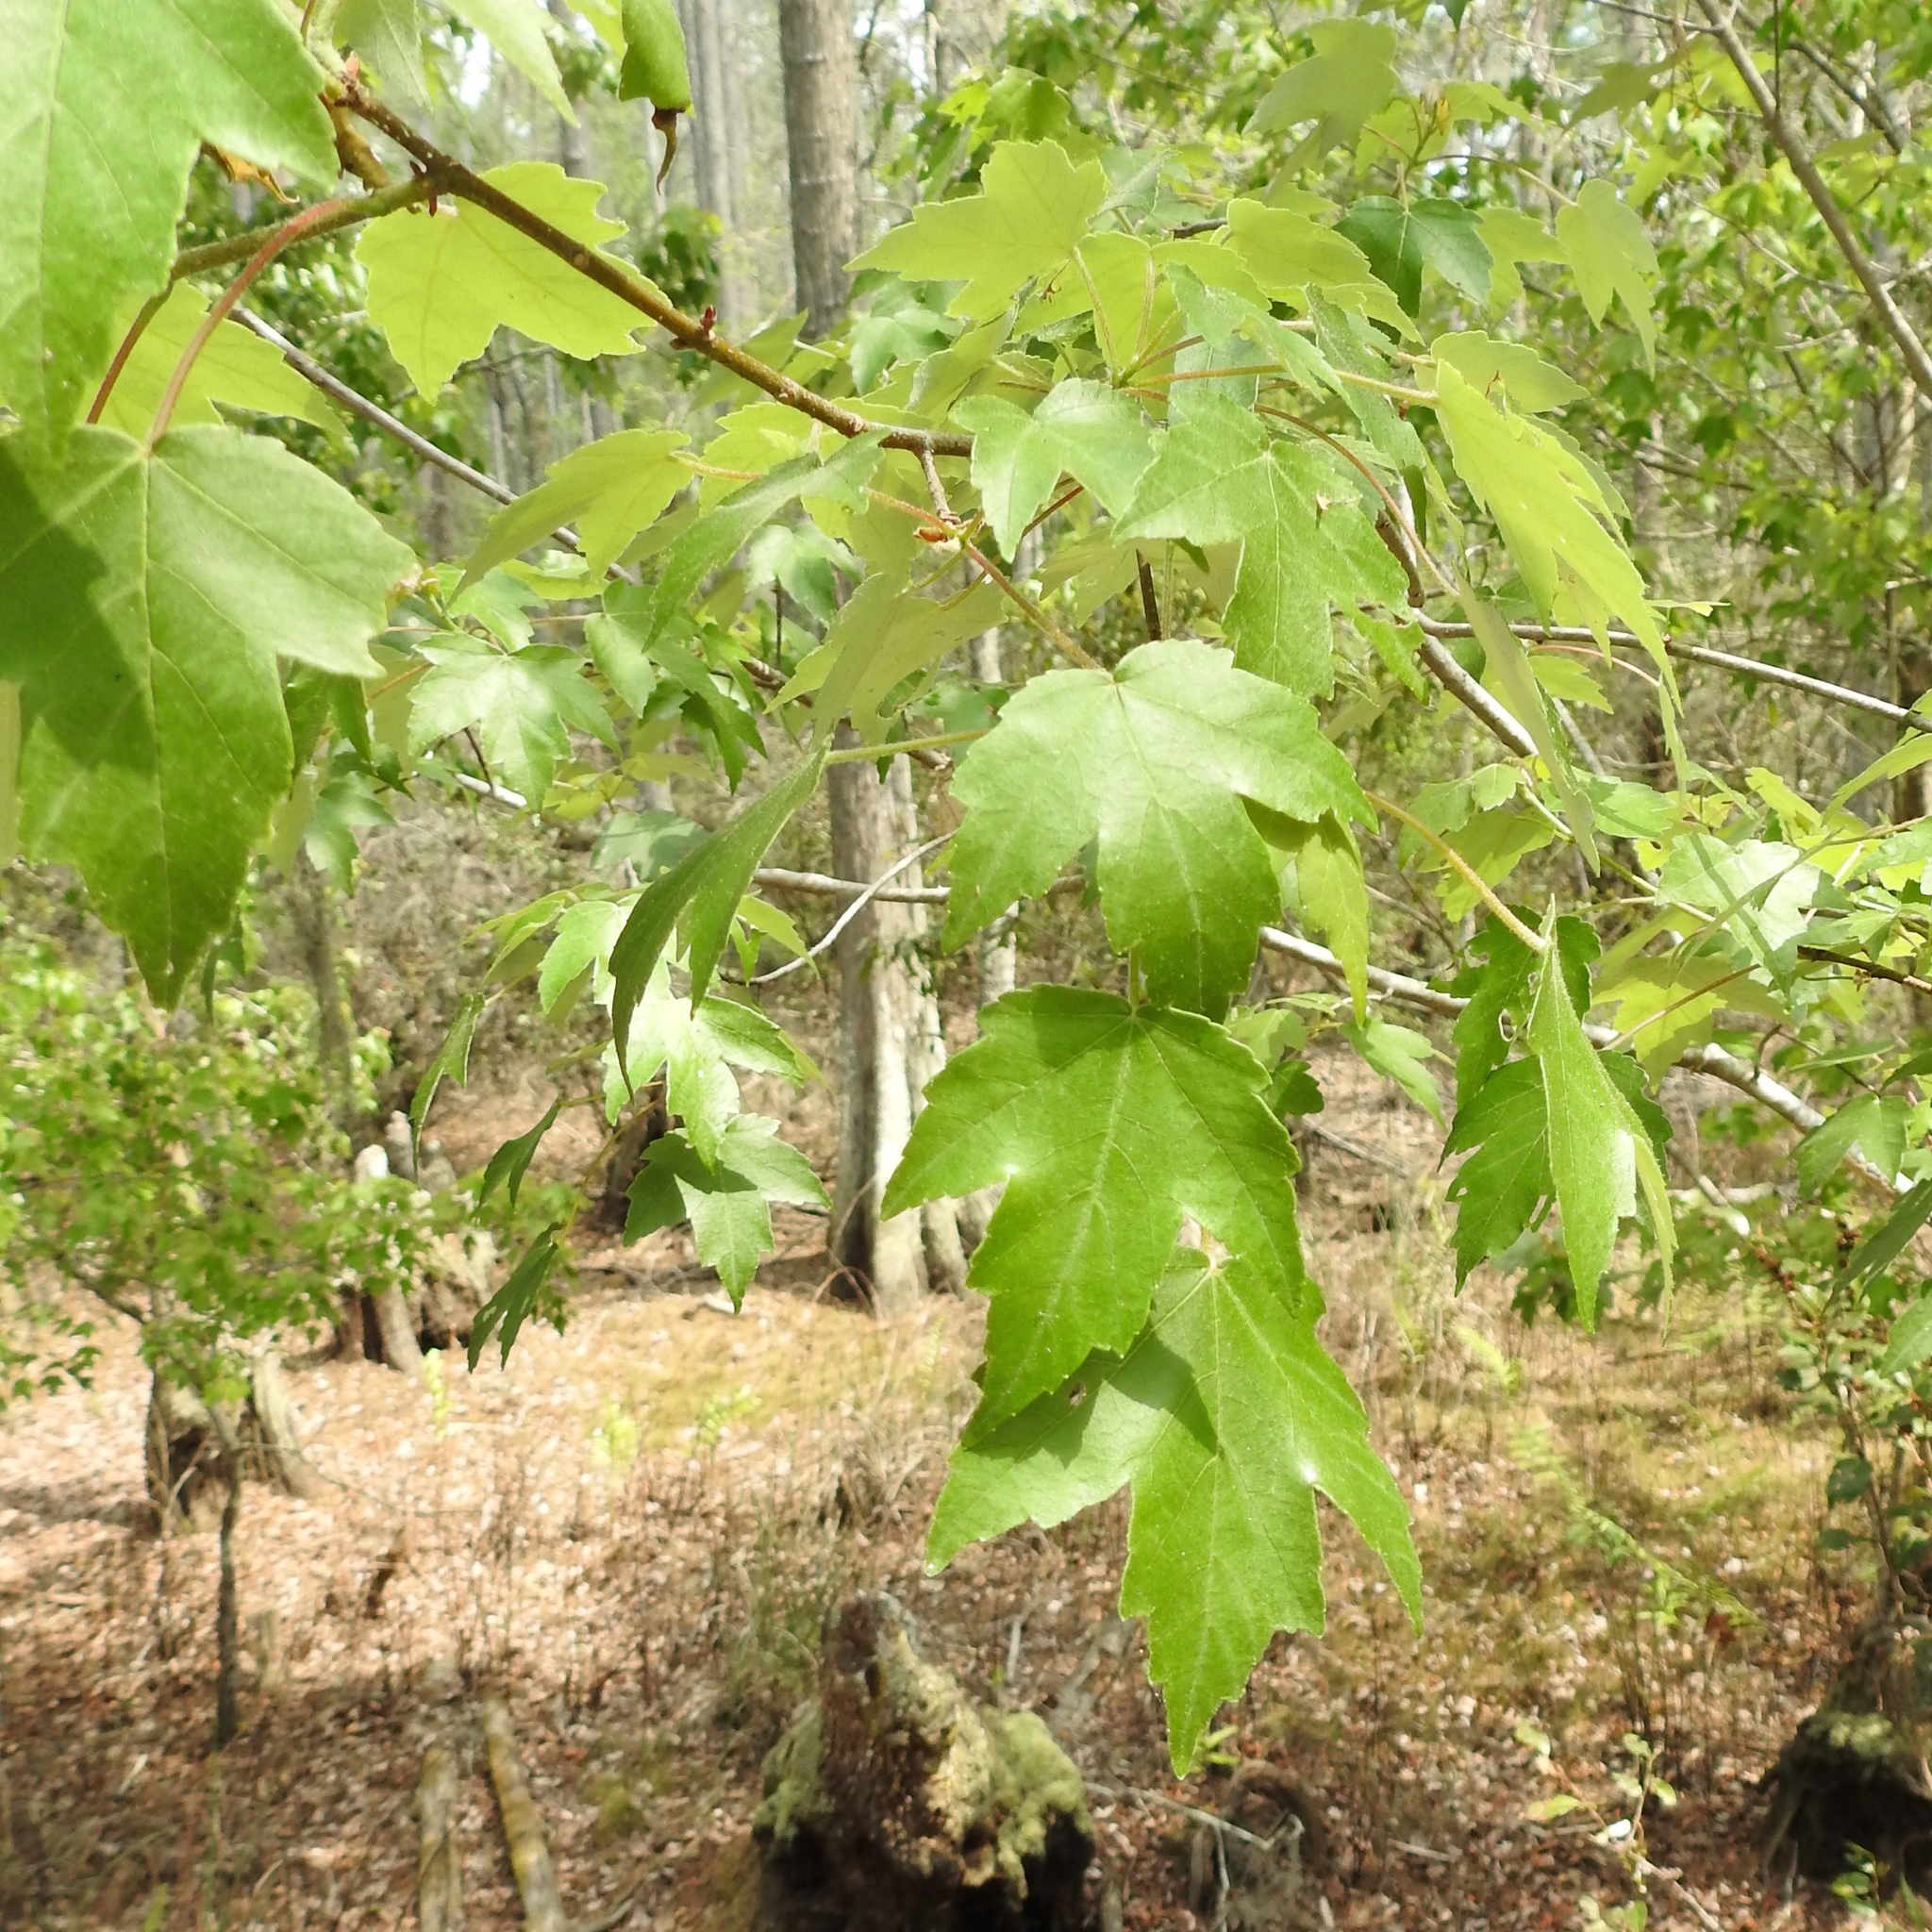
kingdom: Plantae
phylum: Tracheophyta
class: Magnoliopsida
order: Sapindales
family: Sapindaceae
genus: Acer
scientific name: Acer rubrum
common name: Red maple
